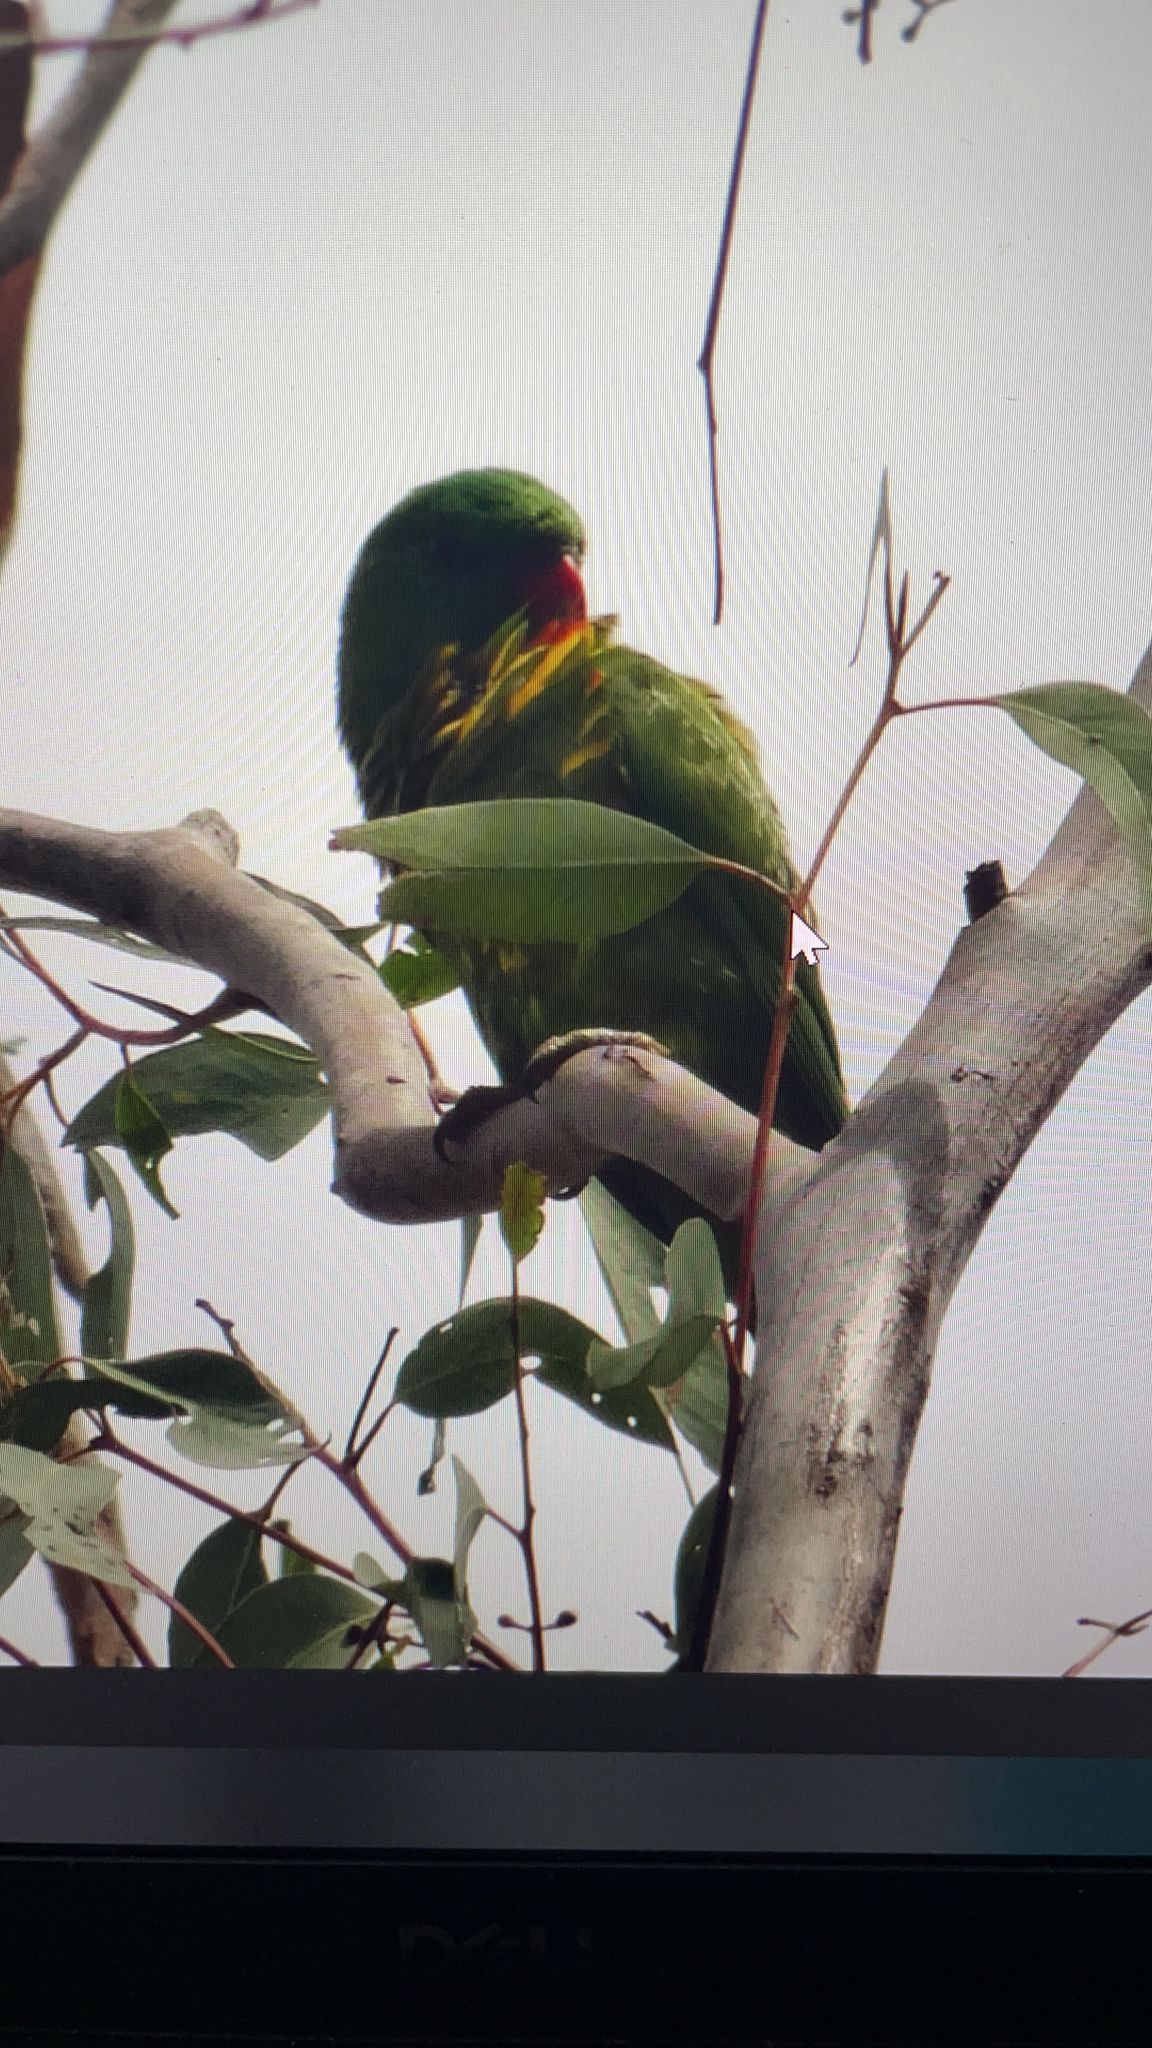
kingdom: Animalia
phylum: Chordata
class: Aves
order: Psittaciformes
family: Psittacidae
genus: Trichoglossus
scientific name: Trichoglossus chlorolepidotus
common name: Scaly-breasted lorikeet
